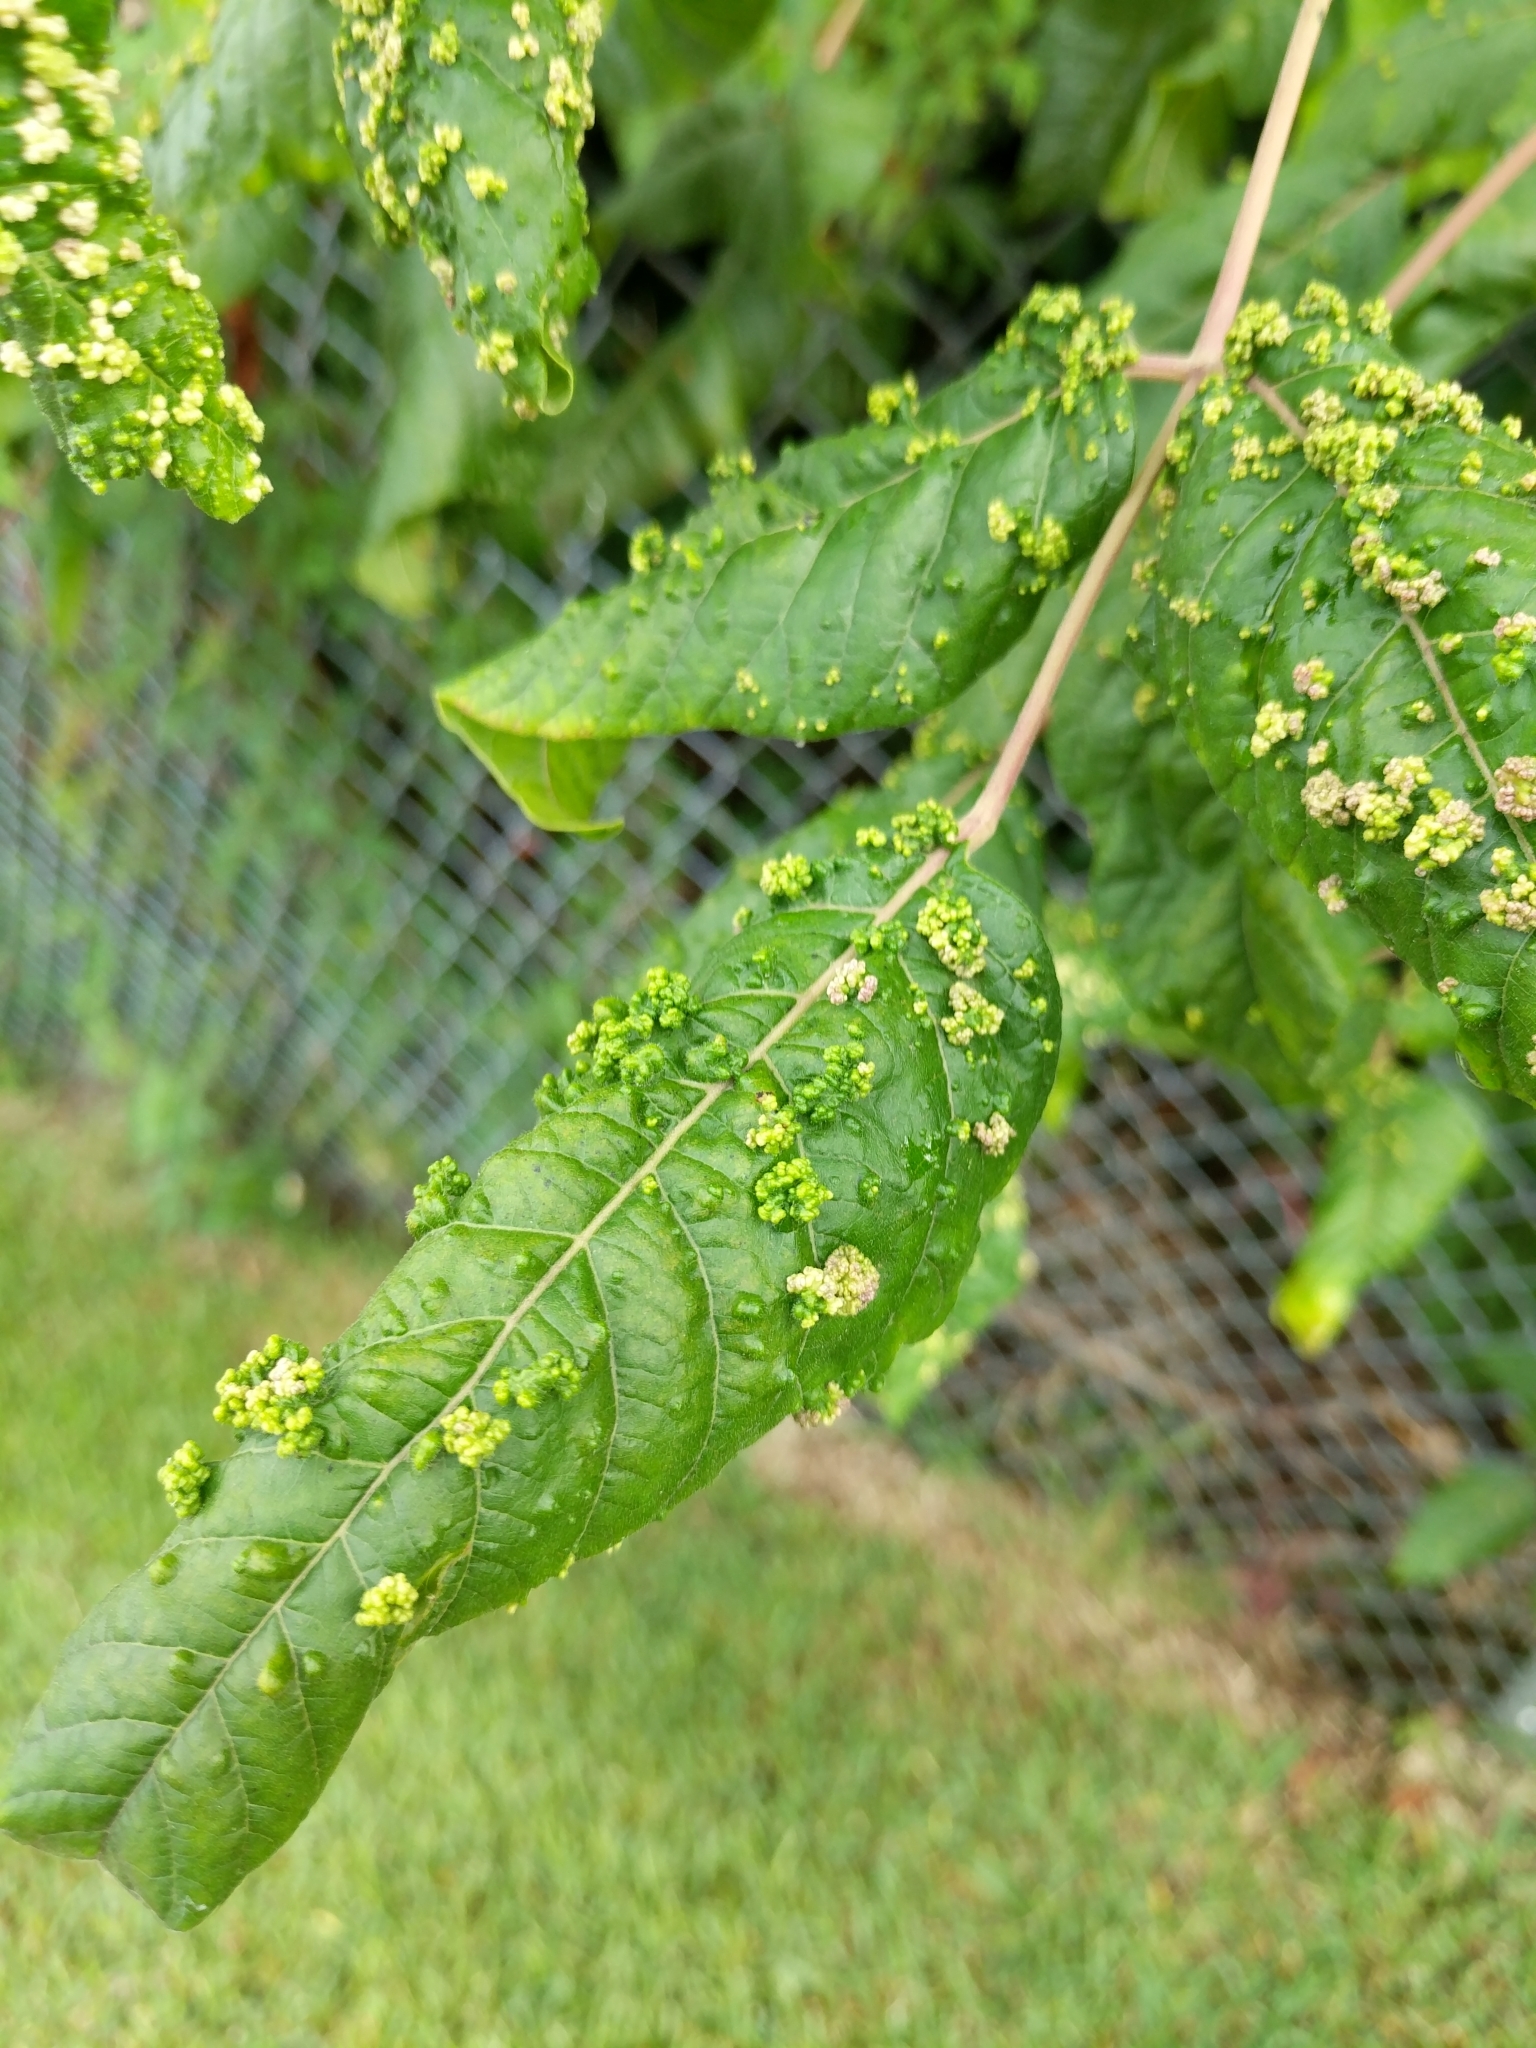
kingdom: Animalia
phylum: Arthropoda
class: Arachnida
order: Trombidiformes
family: Eriophyidae
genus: Aculops
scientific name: Aculops
